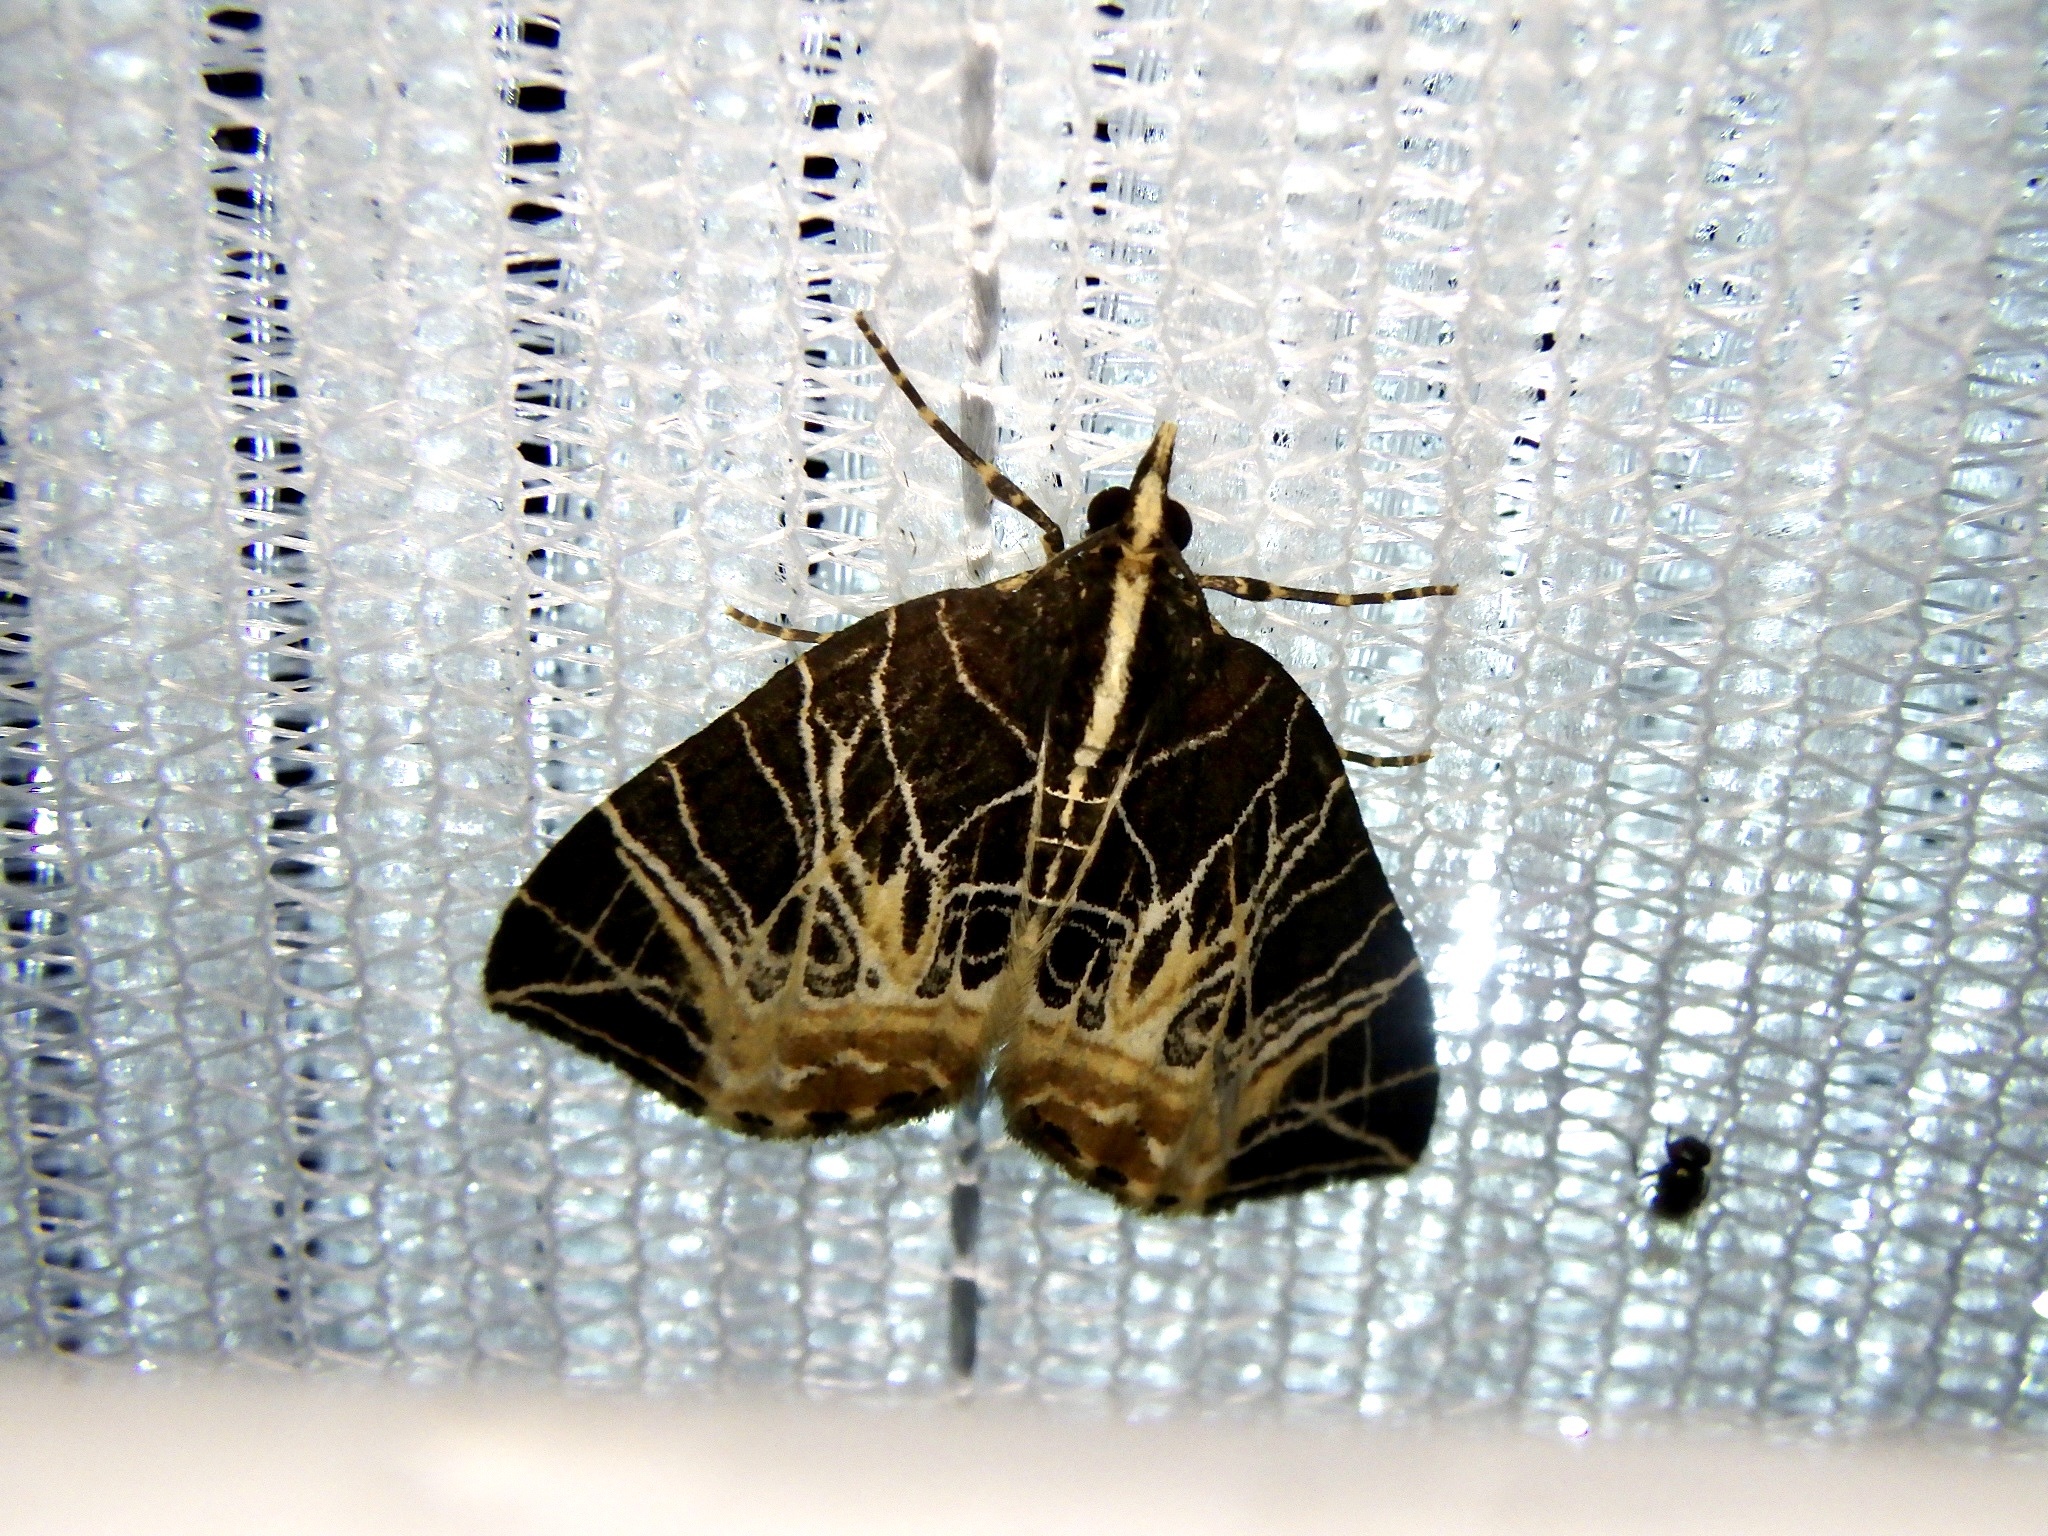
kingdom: Animalia
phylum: Arthropoda
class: Insecta
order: Lepidoptera
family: Geometridae
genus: Evecliptopera
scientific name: Evecliptopera illitata
